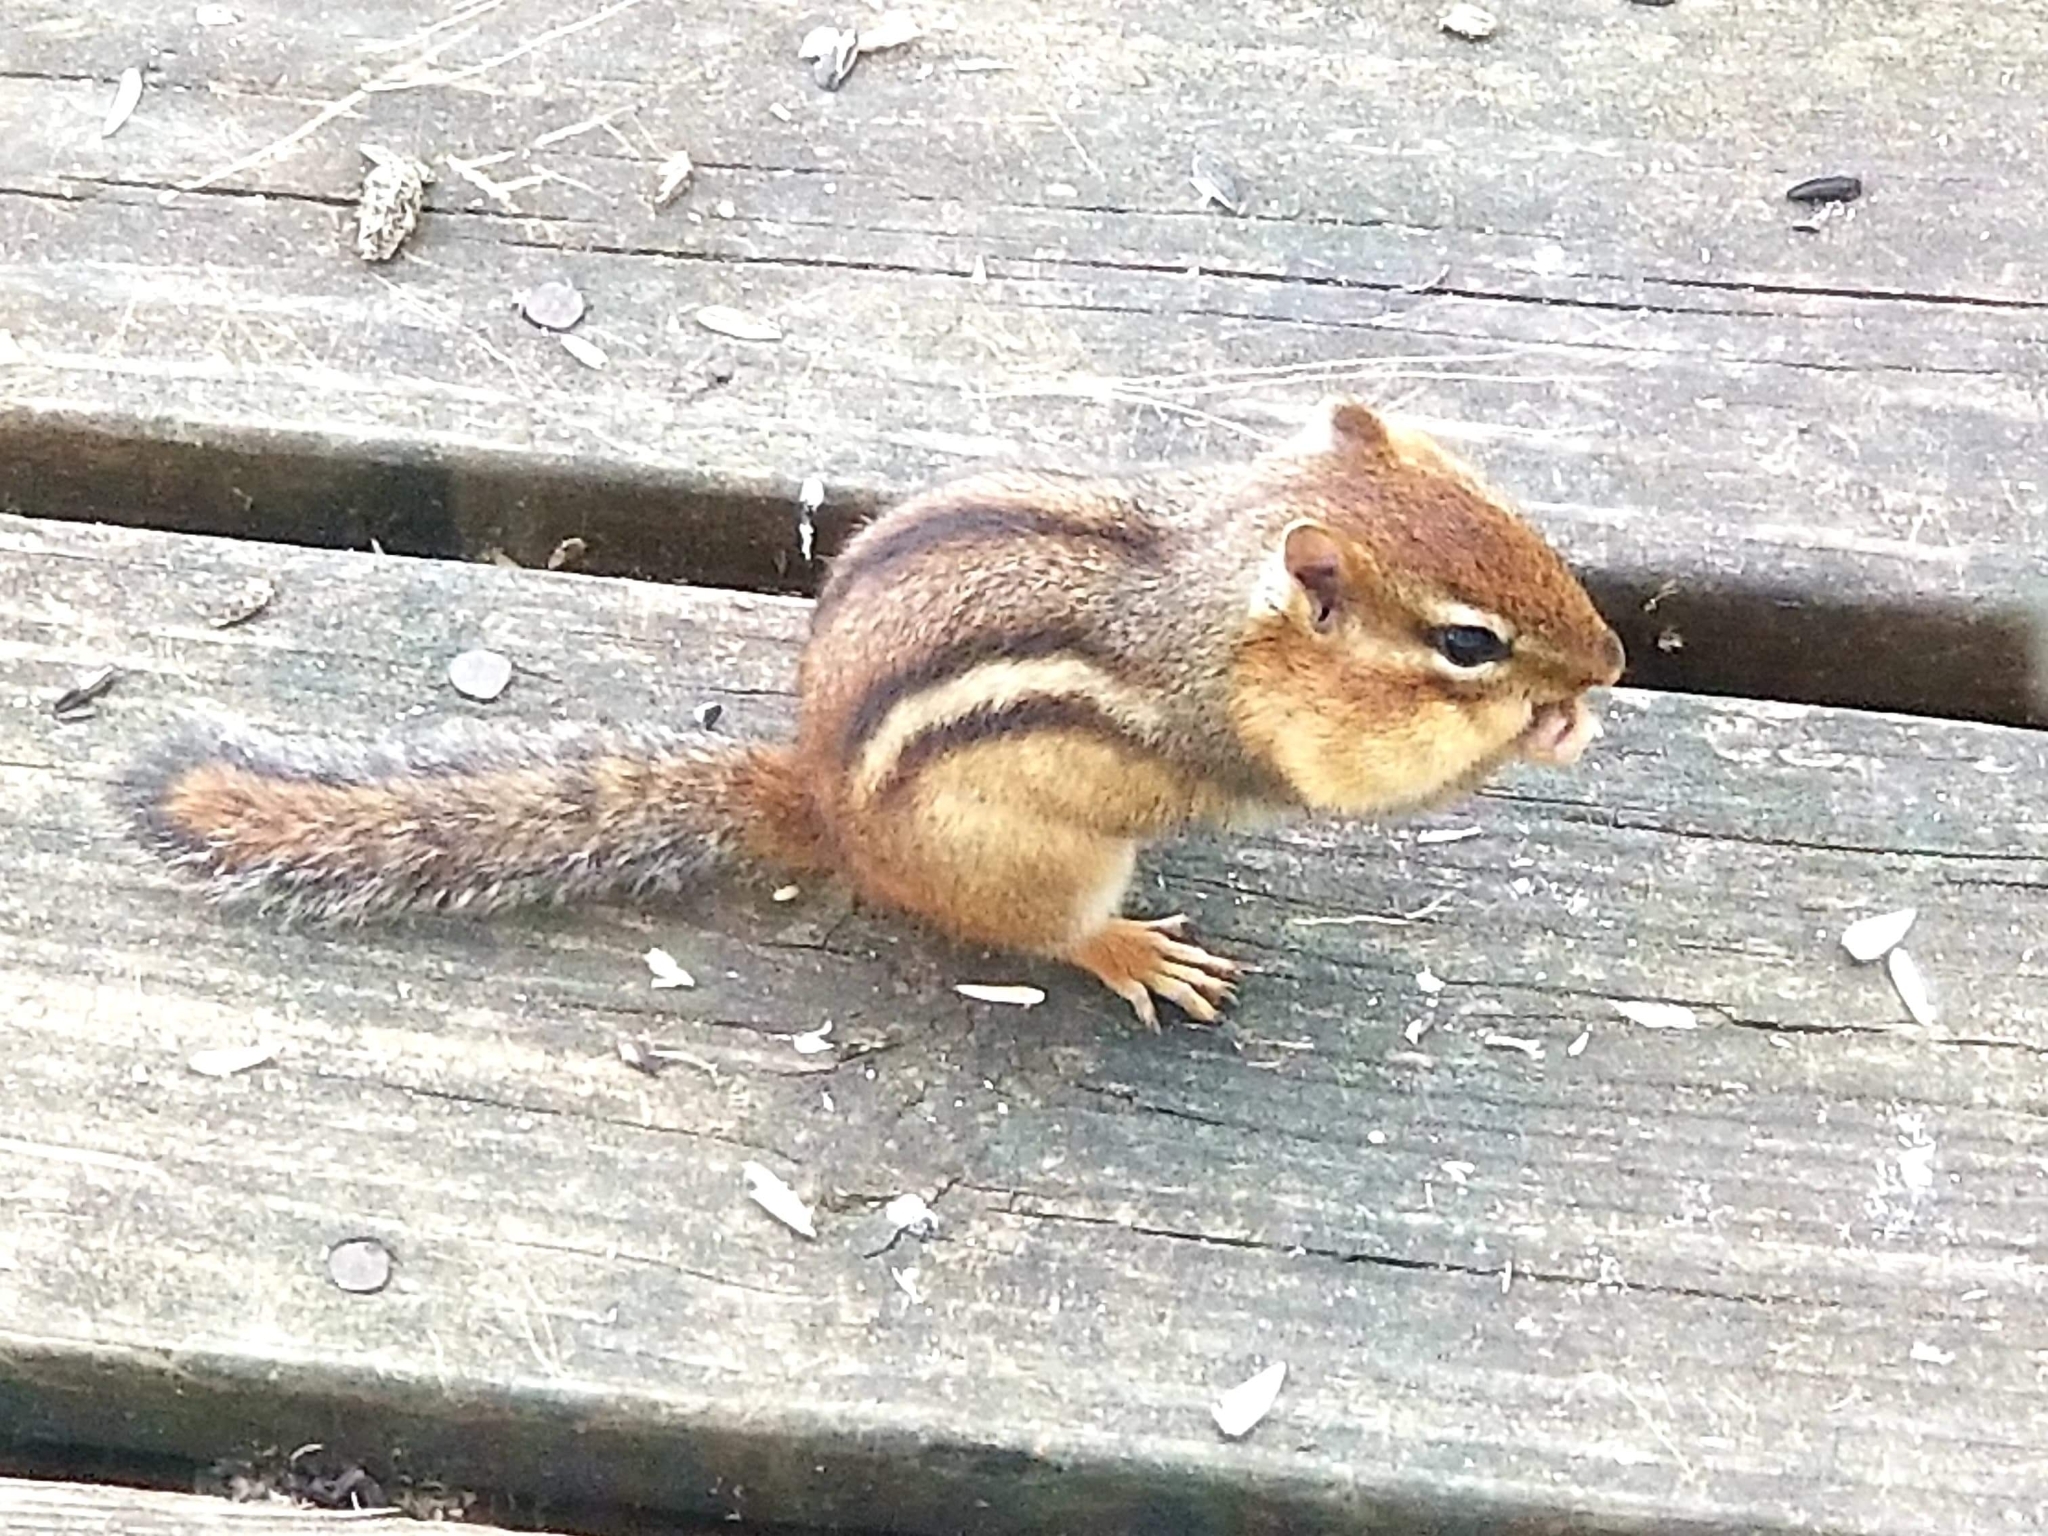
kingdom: Animalia
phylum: Chordata
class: Mammalia
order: Rodentia
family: Sciuridae
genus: Tamias
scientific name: Tamias striatus
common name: Eastern chipmunk
